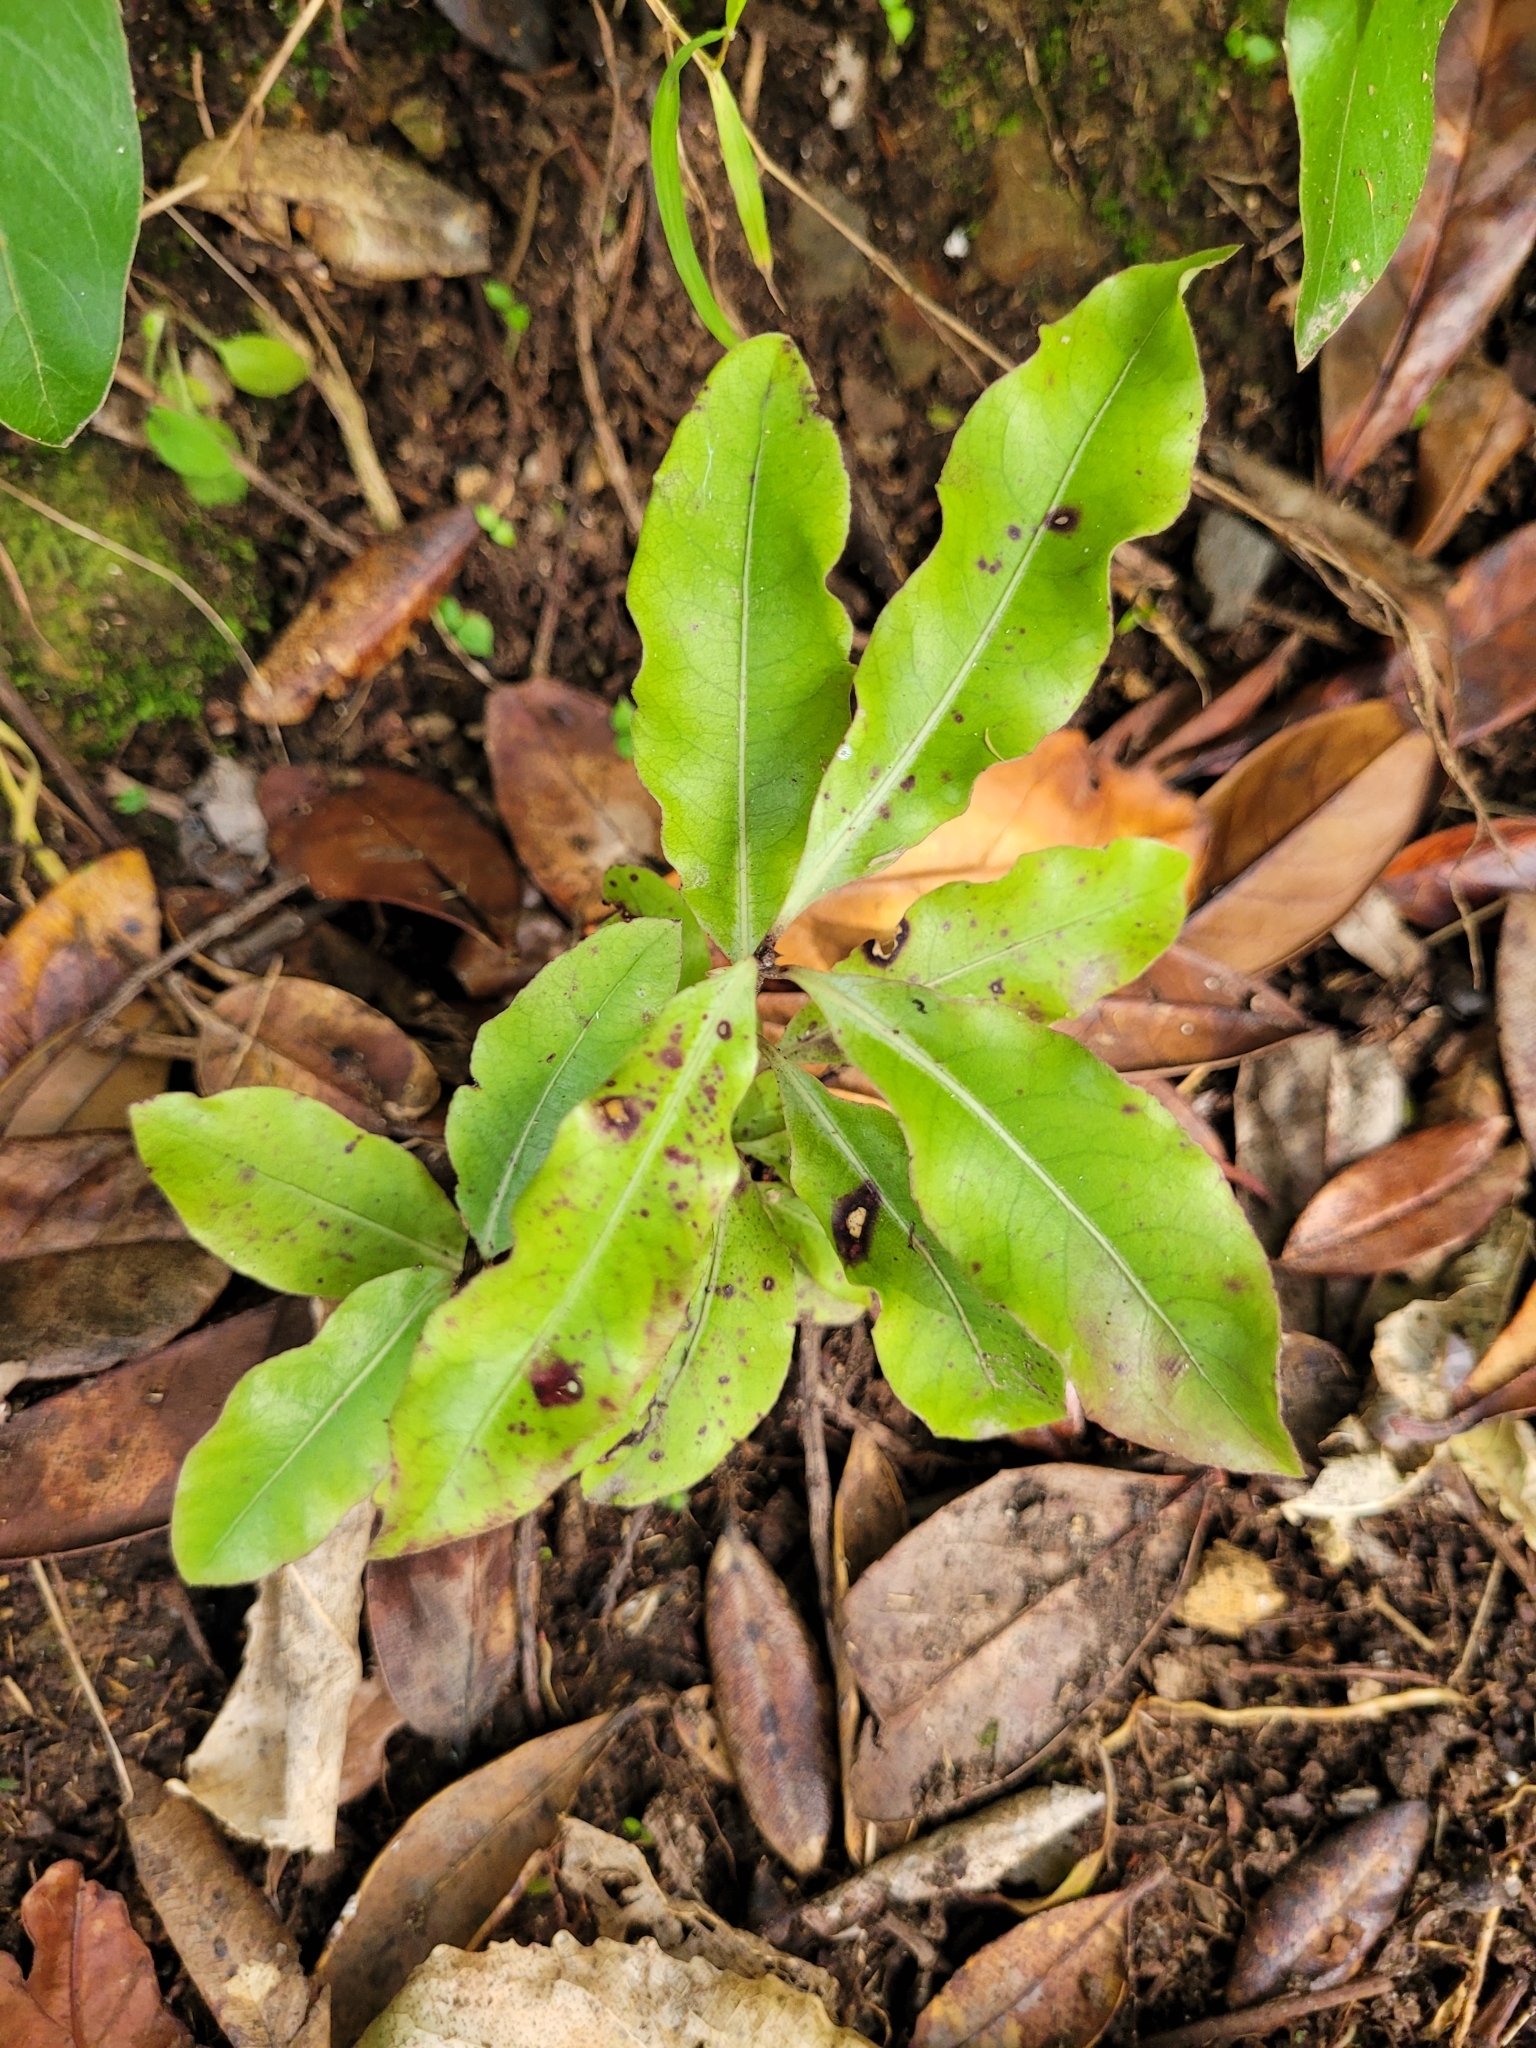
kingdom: Plantae
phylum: Tracheophyta
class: Magnoliopsida
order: Apiales
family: Pittosporaceae
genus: Pittosporum
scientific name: Pittosporum eugenioides
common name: Lemonwood
